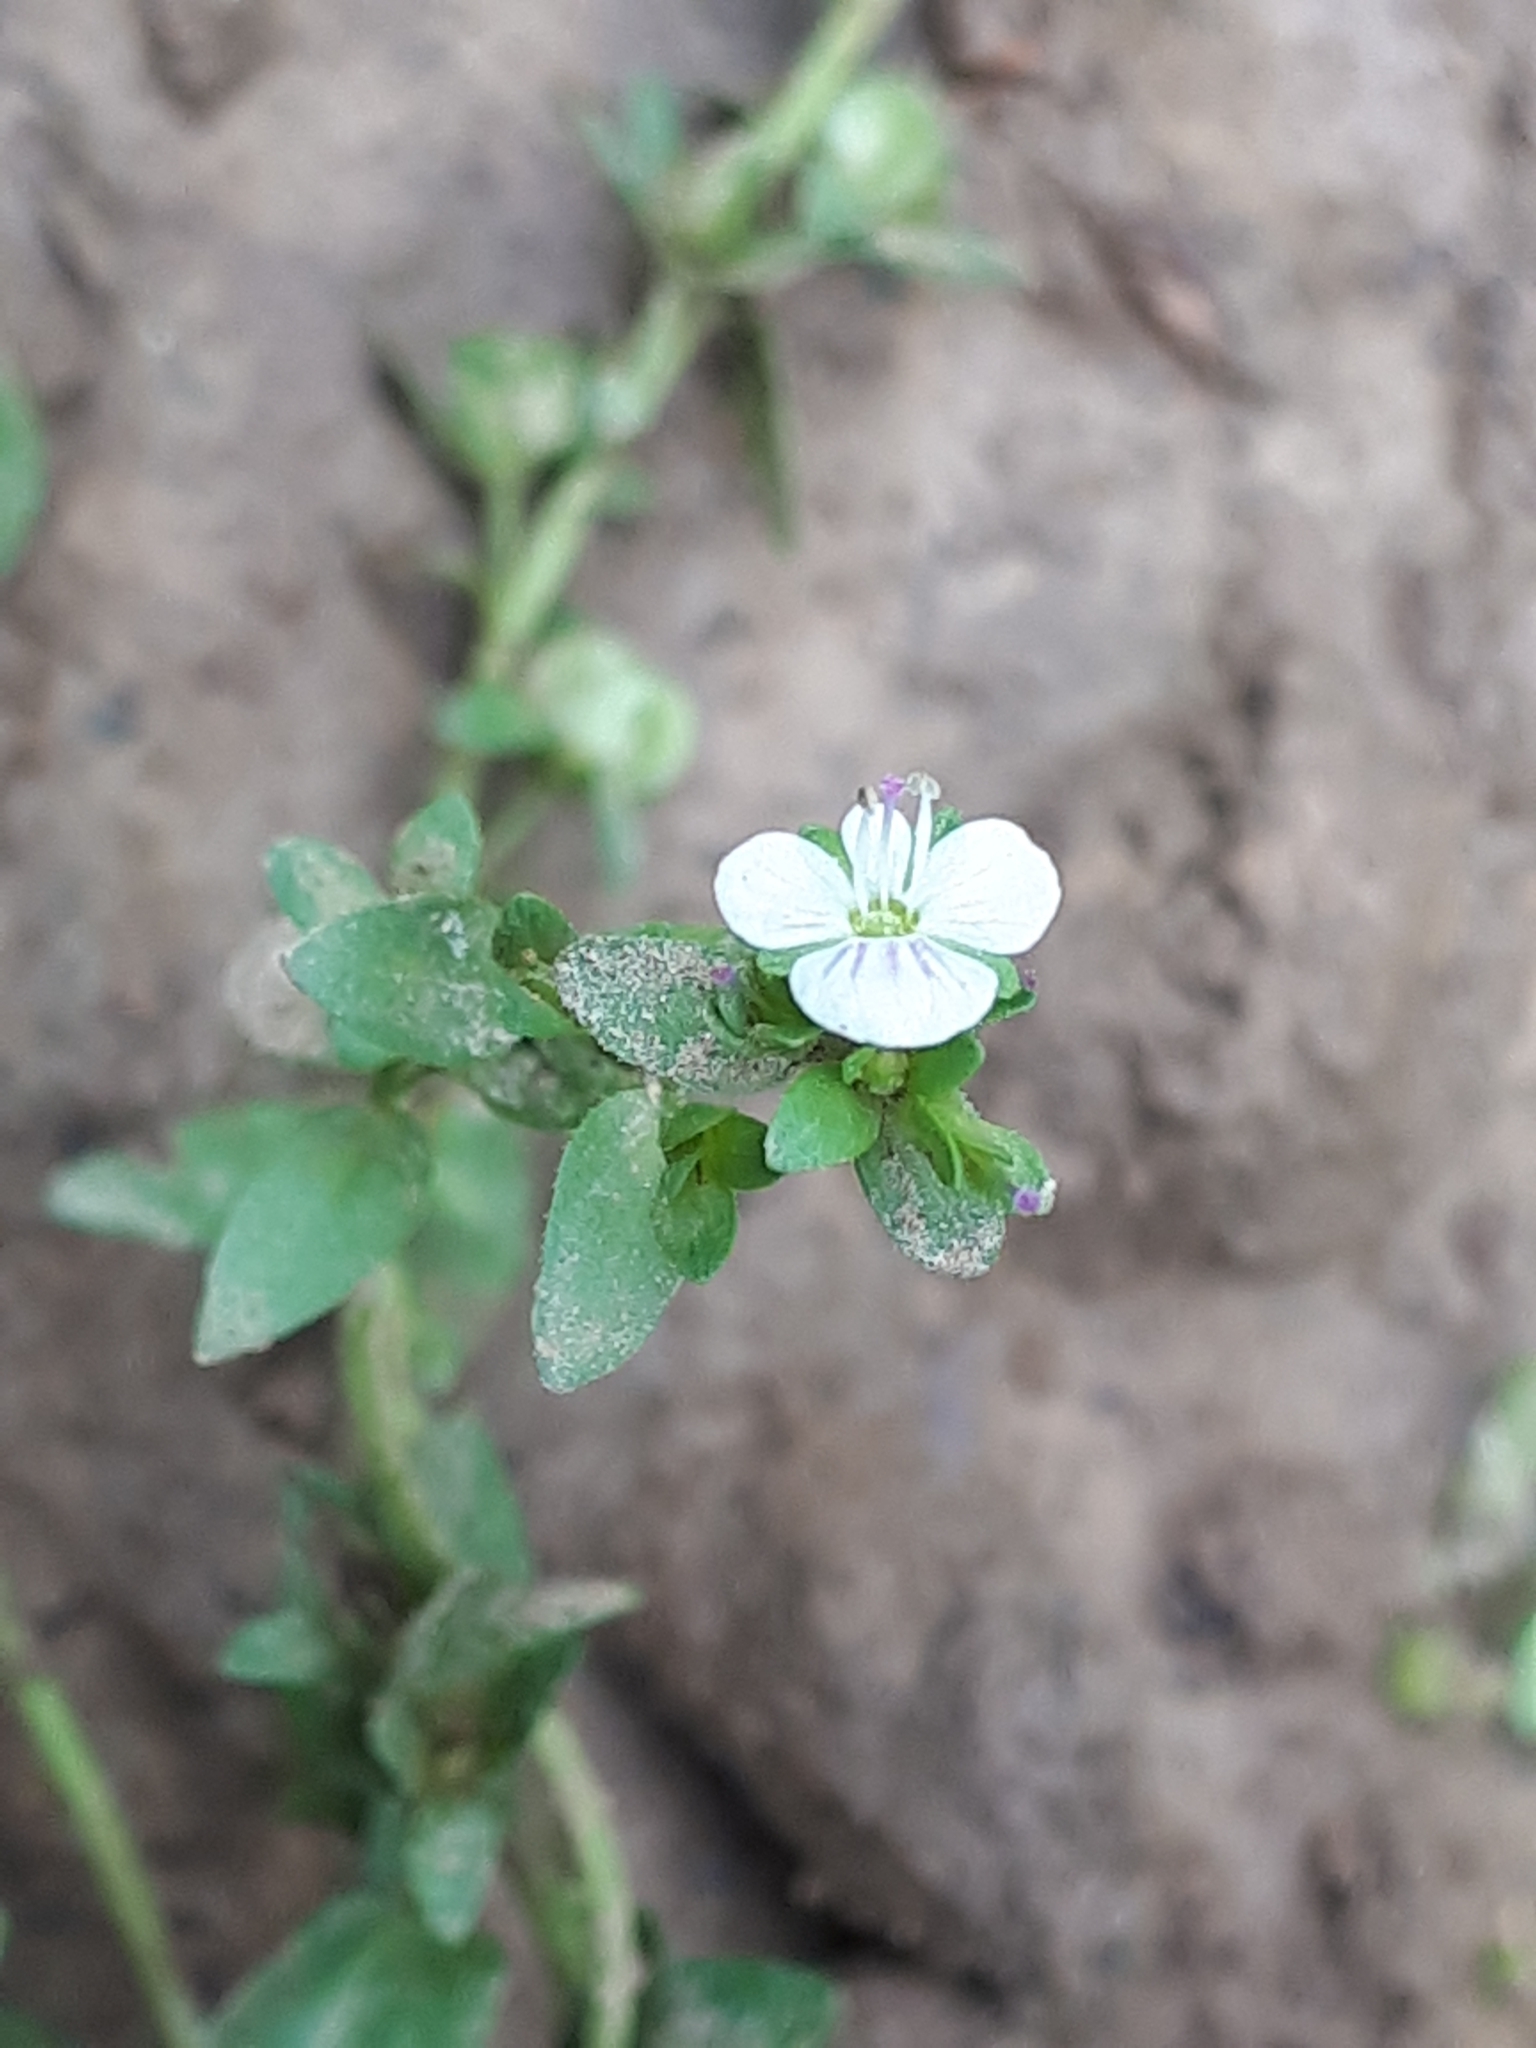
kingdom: Plantae
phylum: Tracheophyta
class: Magnoliopsida
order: Lamiales
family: Plantaginaceae
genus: Veronica
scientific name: Veronica serpyllifolia
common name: Thyme-leaved speedwell
